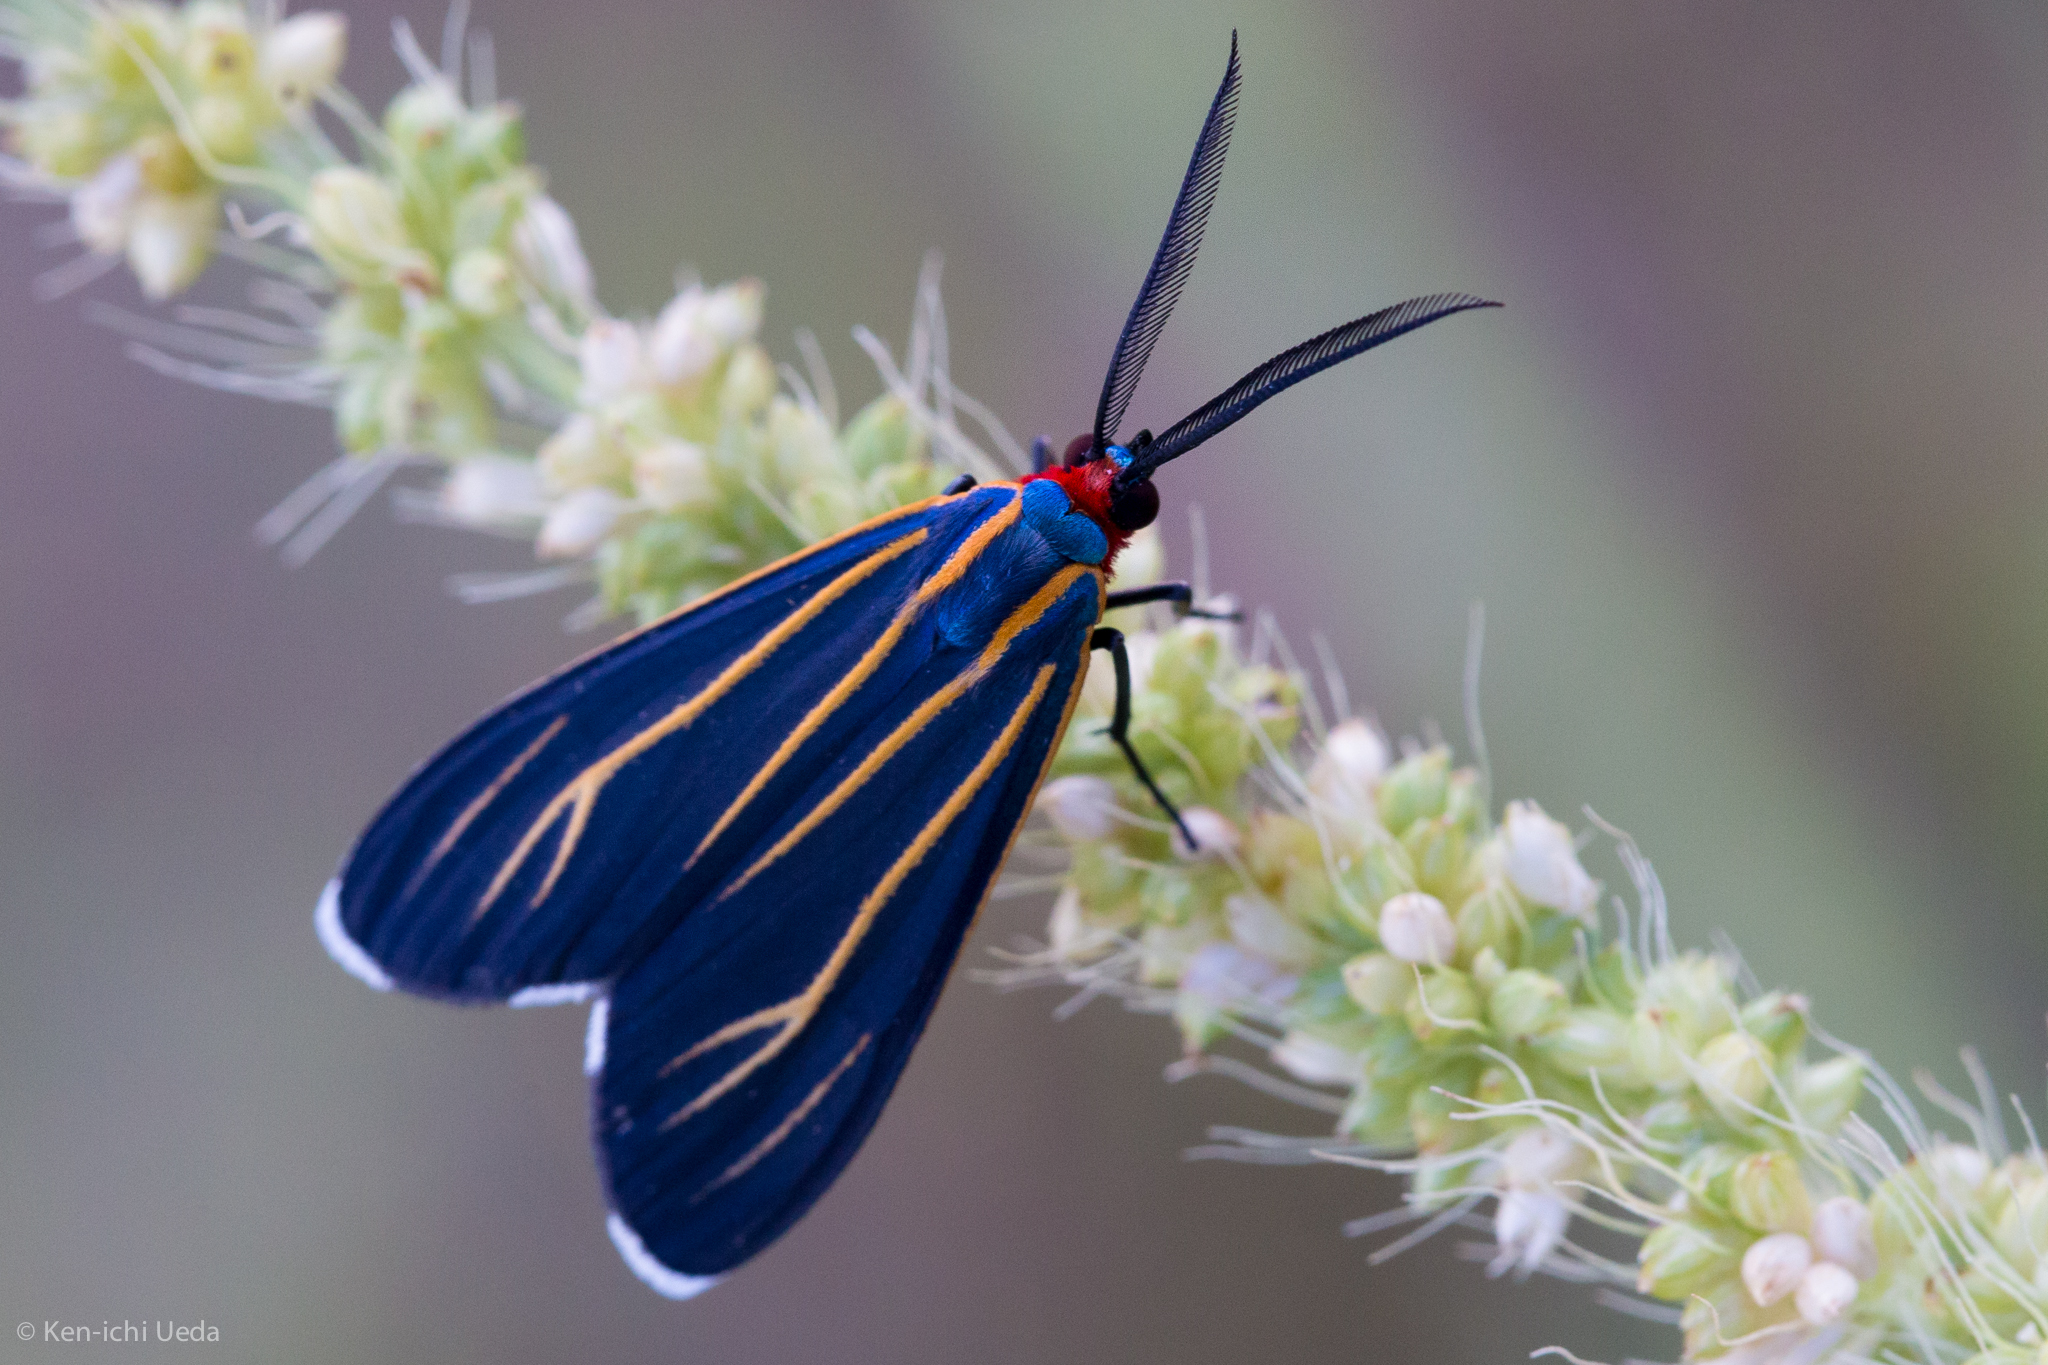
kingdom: Animalia
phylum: Arthropoda
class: Insecta
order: Lepidoptera
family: Erebidae
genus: Ctenucha
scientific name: Ctenucha venosa
